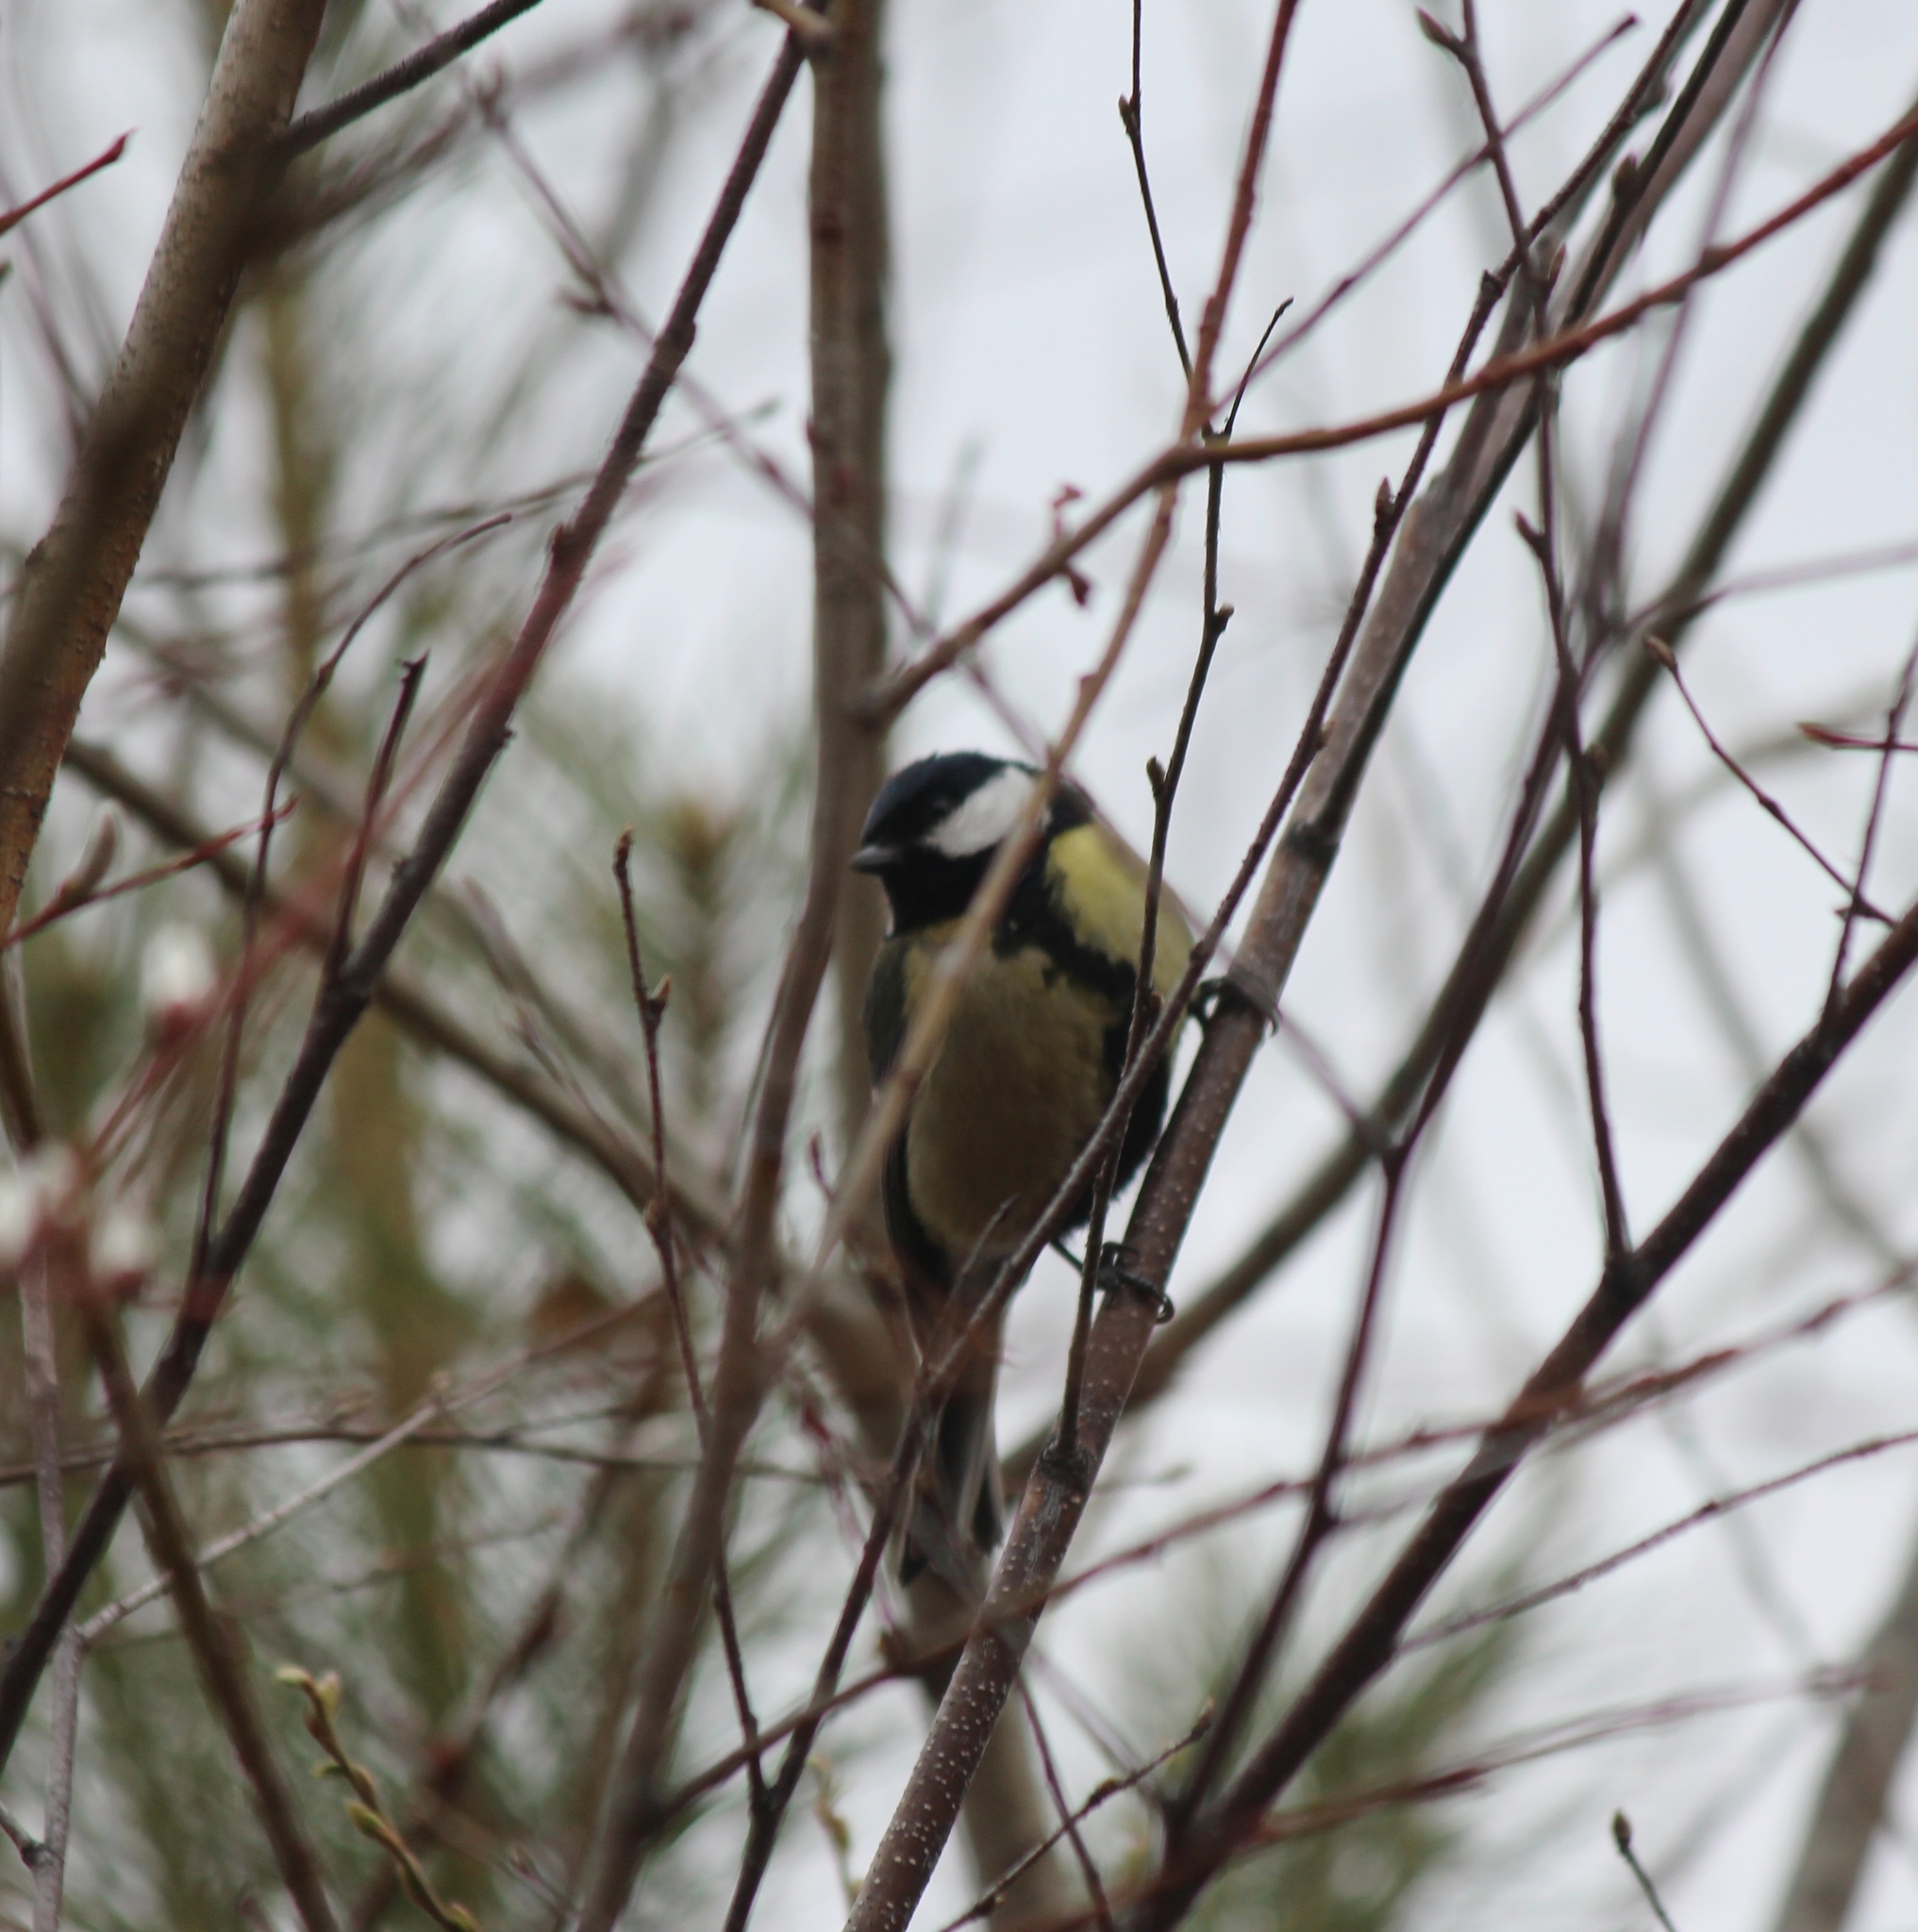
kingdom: Animalia
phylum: Chordata
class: Aves
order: Passeriformes
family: Paridae
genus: Parus
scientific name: Parus major
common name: Great tit
